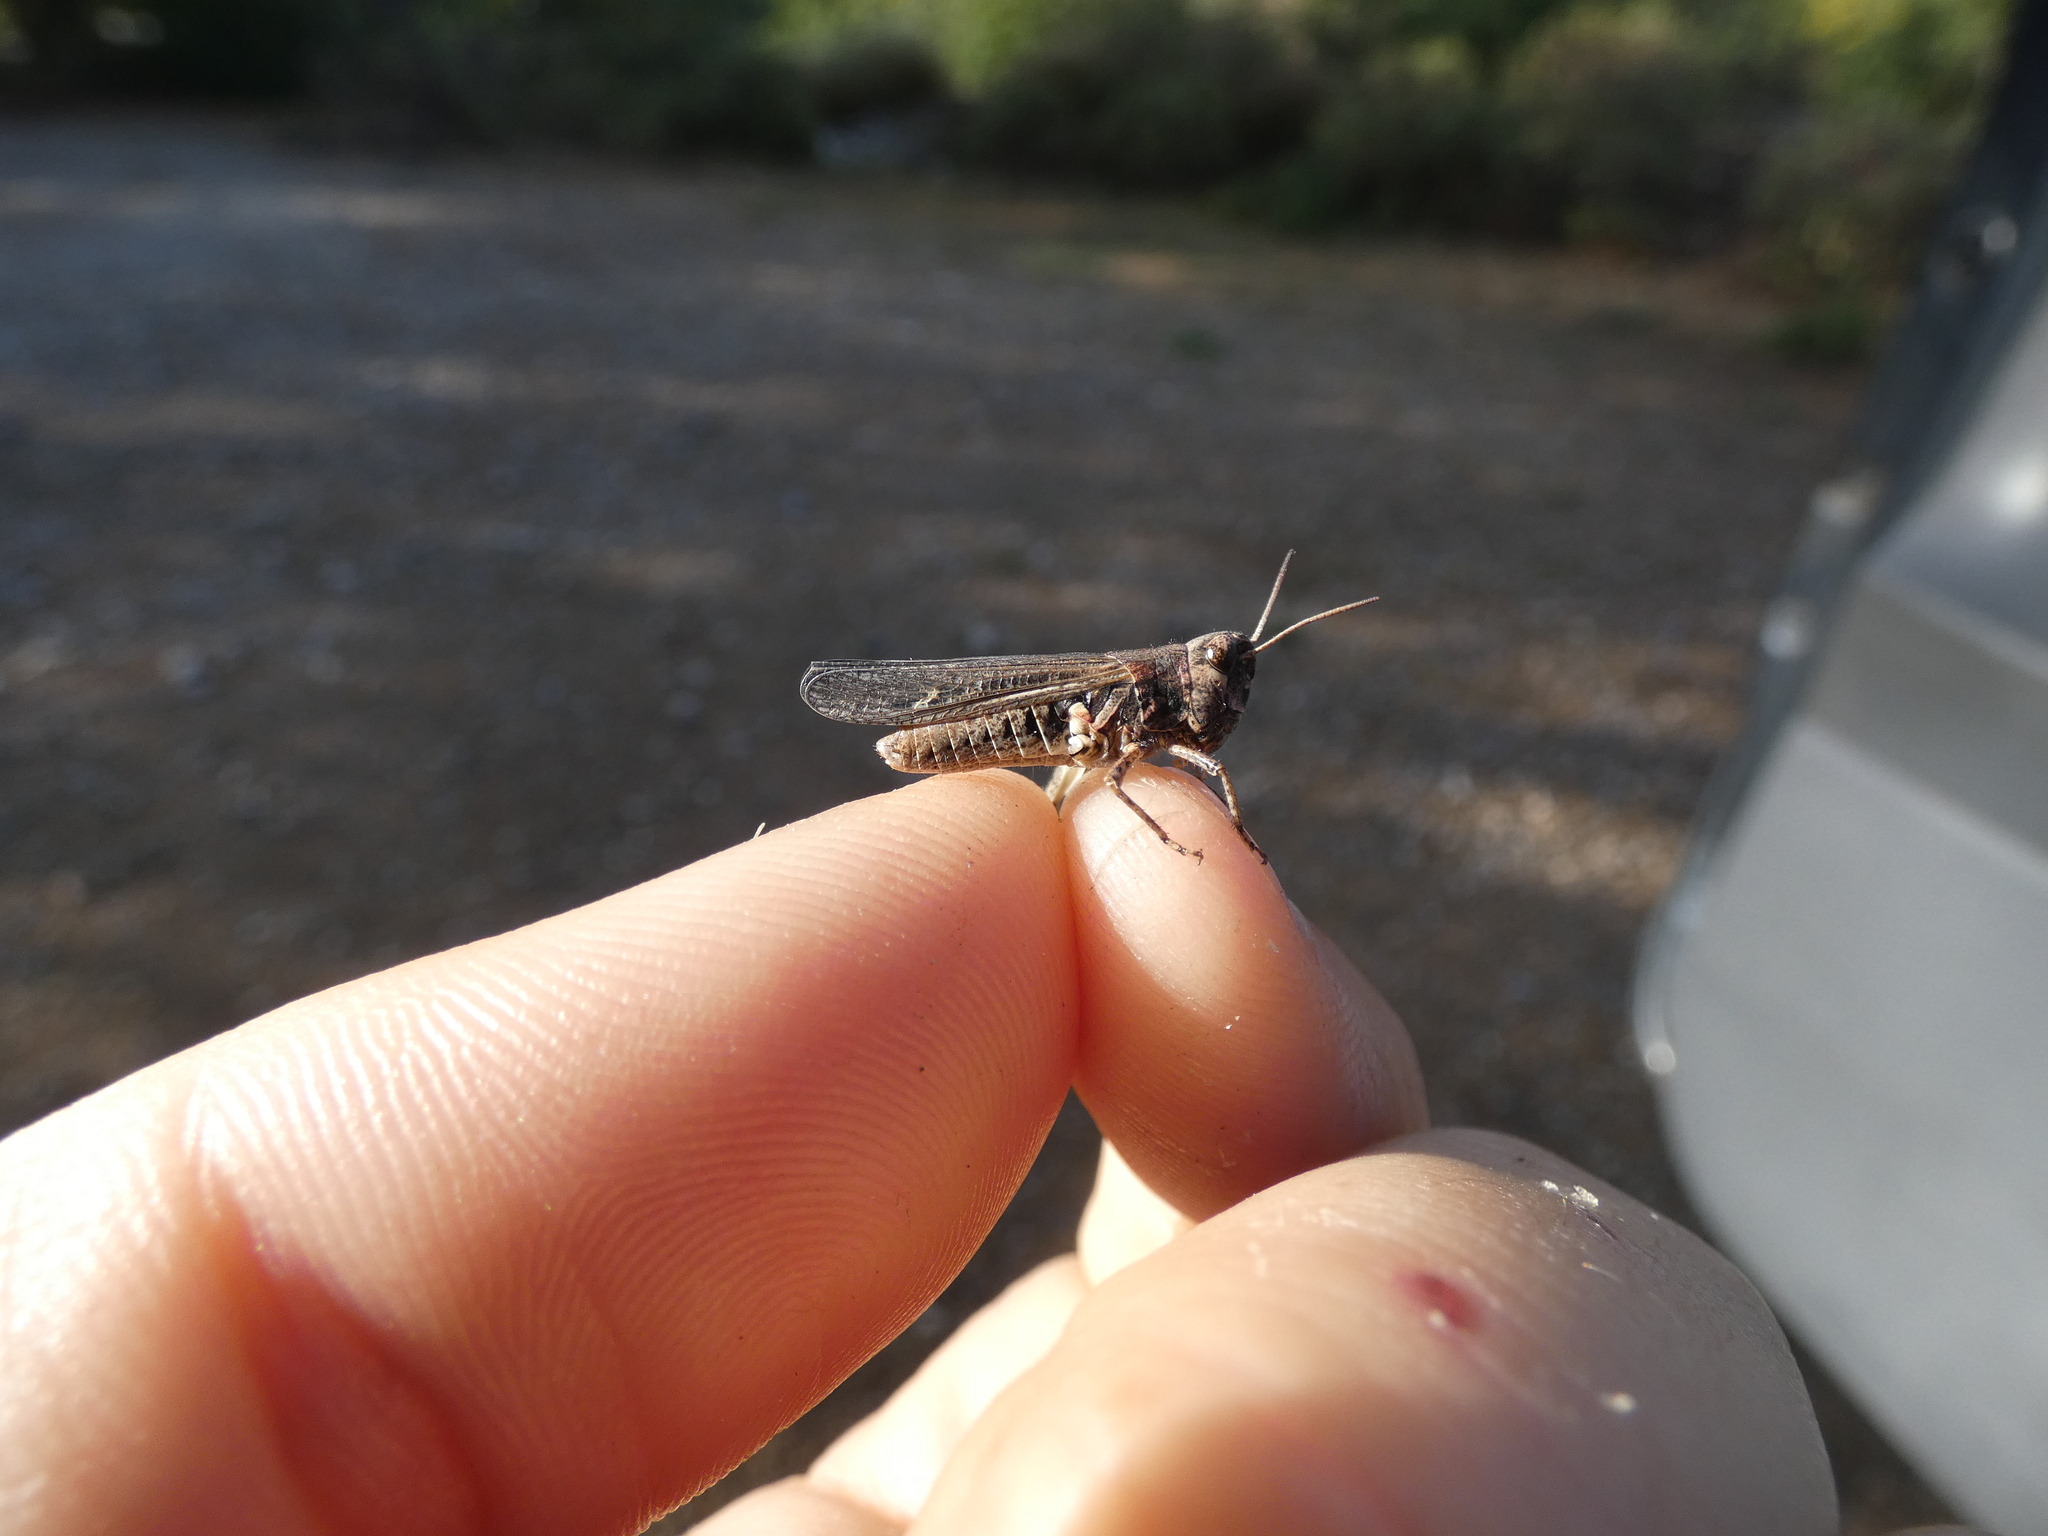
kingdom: Animalia
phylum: Arthropoda
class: Insecta
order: Orthoptera
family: Acrididae
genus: Omocestus
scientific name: Omocestus raymondi
